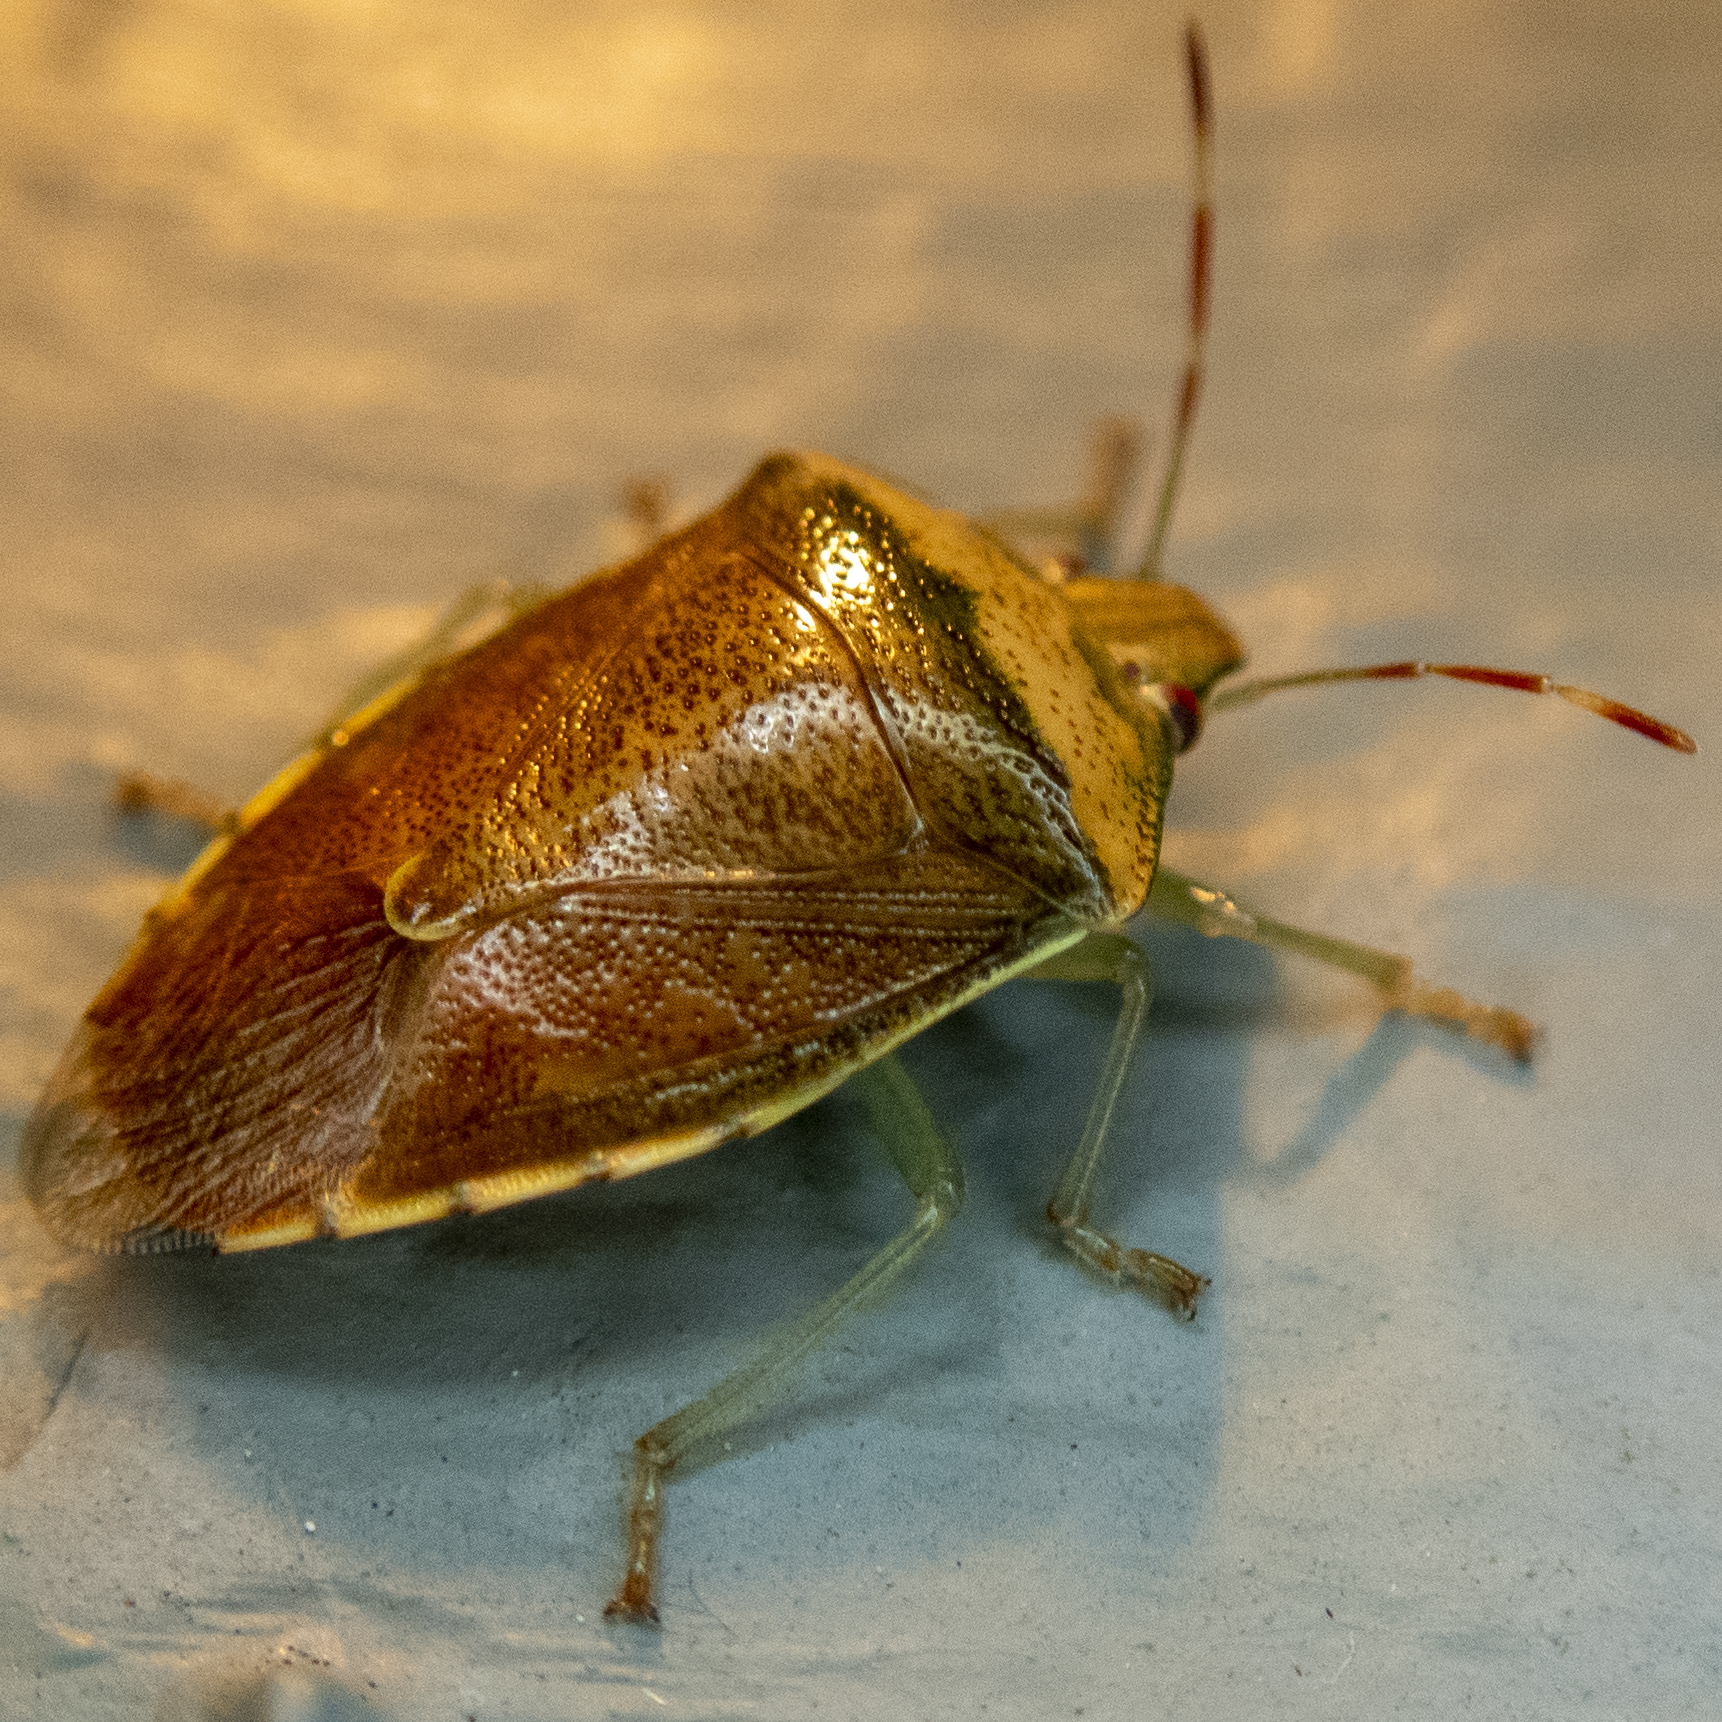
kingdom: Animalia
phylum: Arthropoda
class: Insecta
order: Hemiptera
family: Pentatomidae
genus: Banasa
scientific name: Banasa calva
